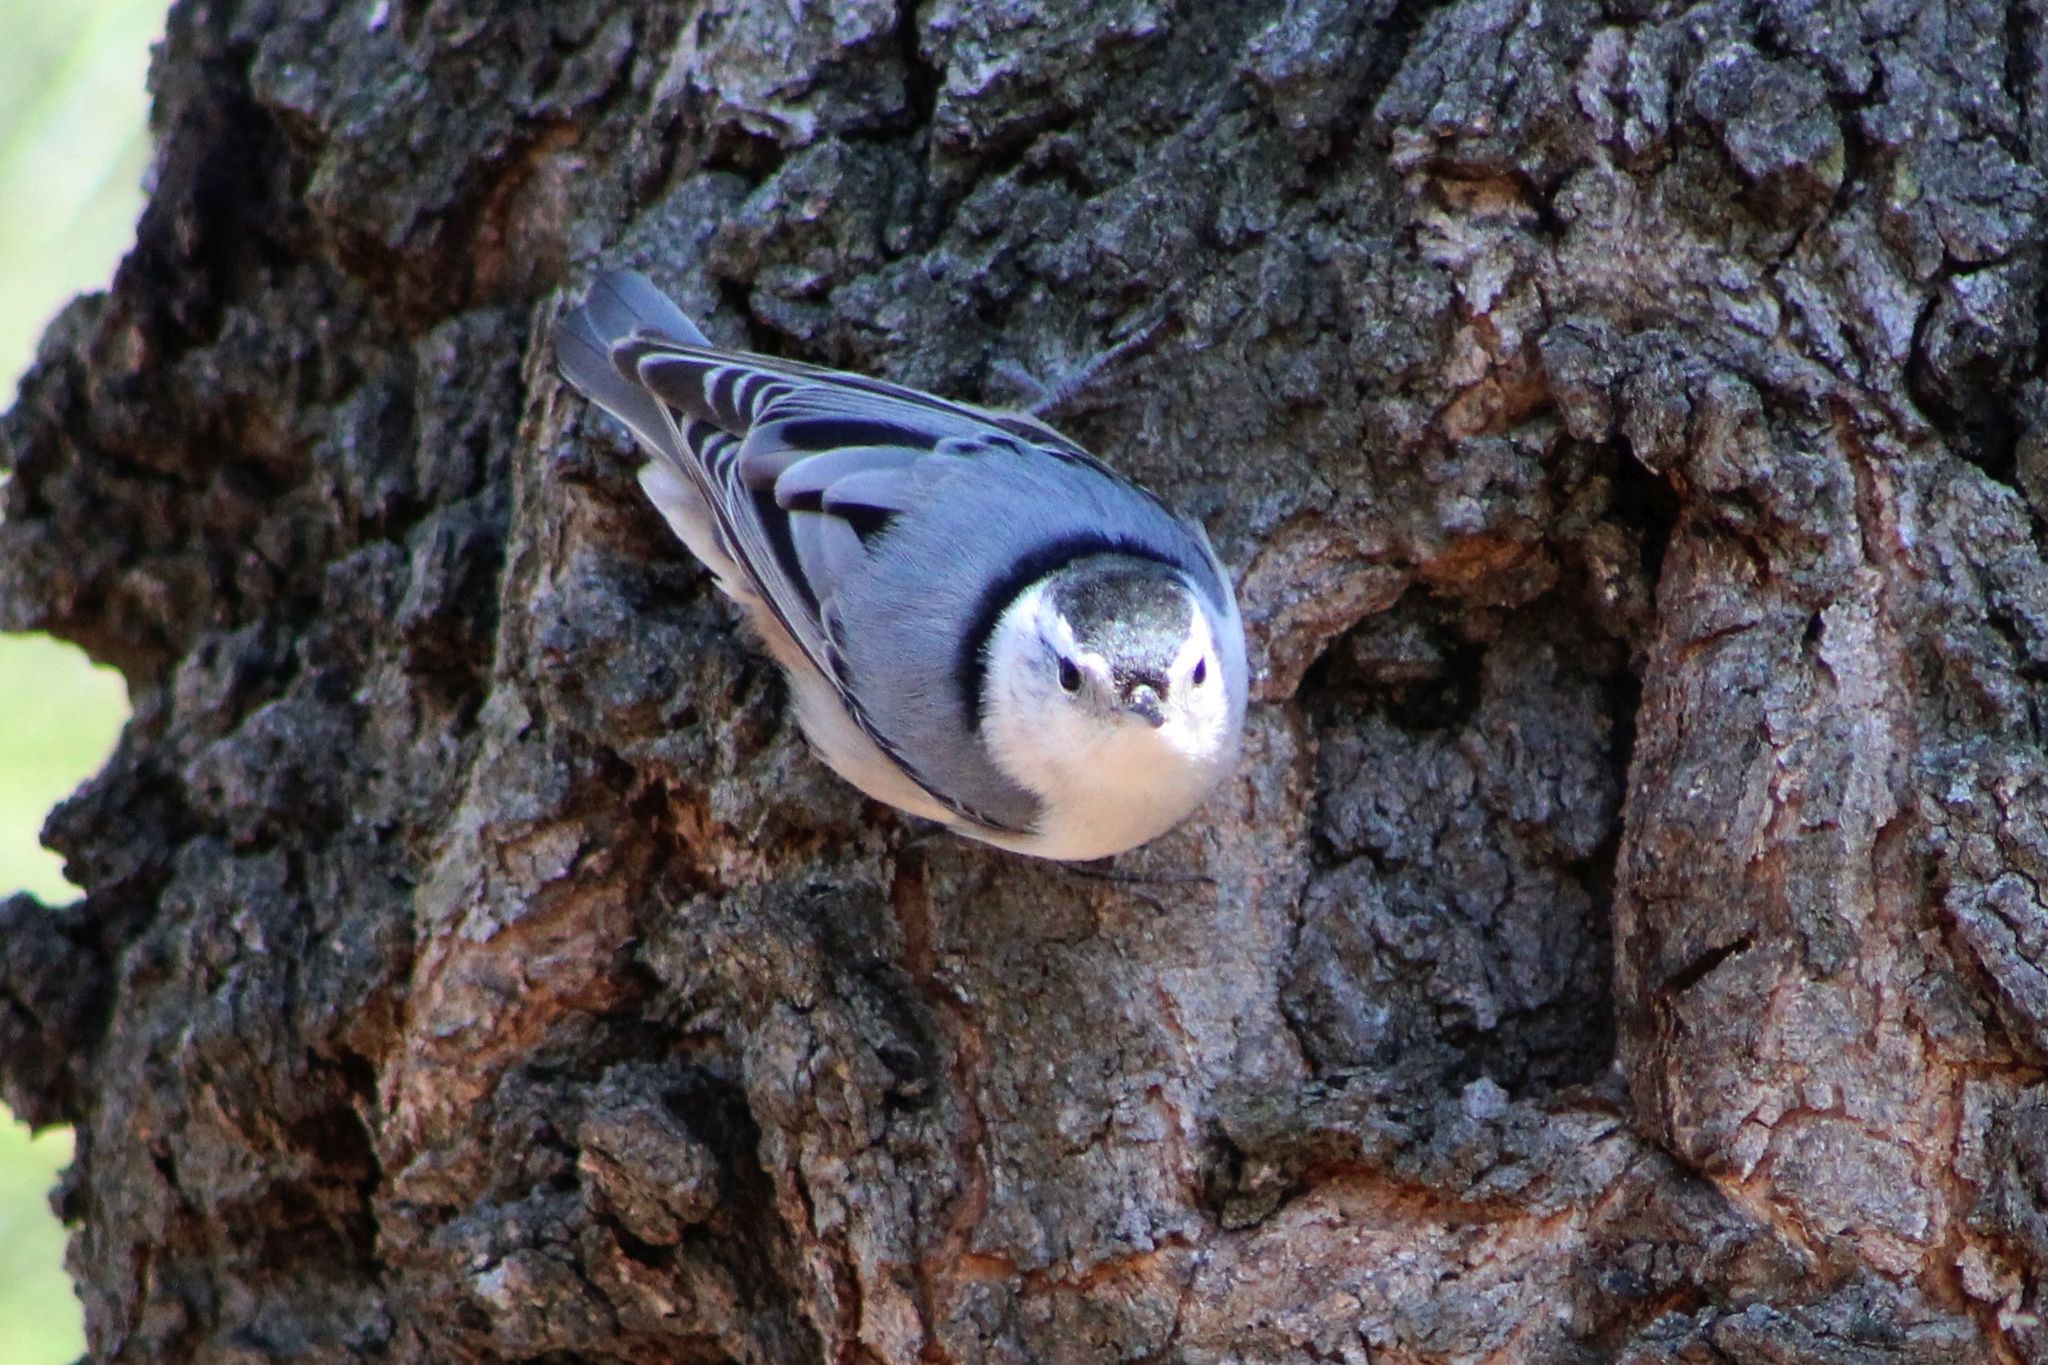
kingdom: Animalia
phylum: Chordata
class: Aves
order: Passeriformes
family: Sittidae
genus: Sitta
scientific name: Sitta carolinensis
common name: White-breasted nuthatch
